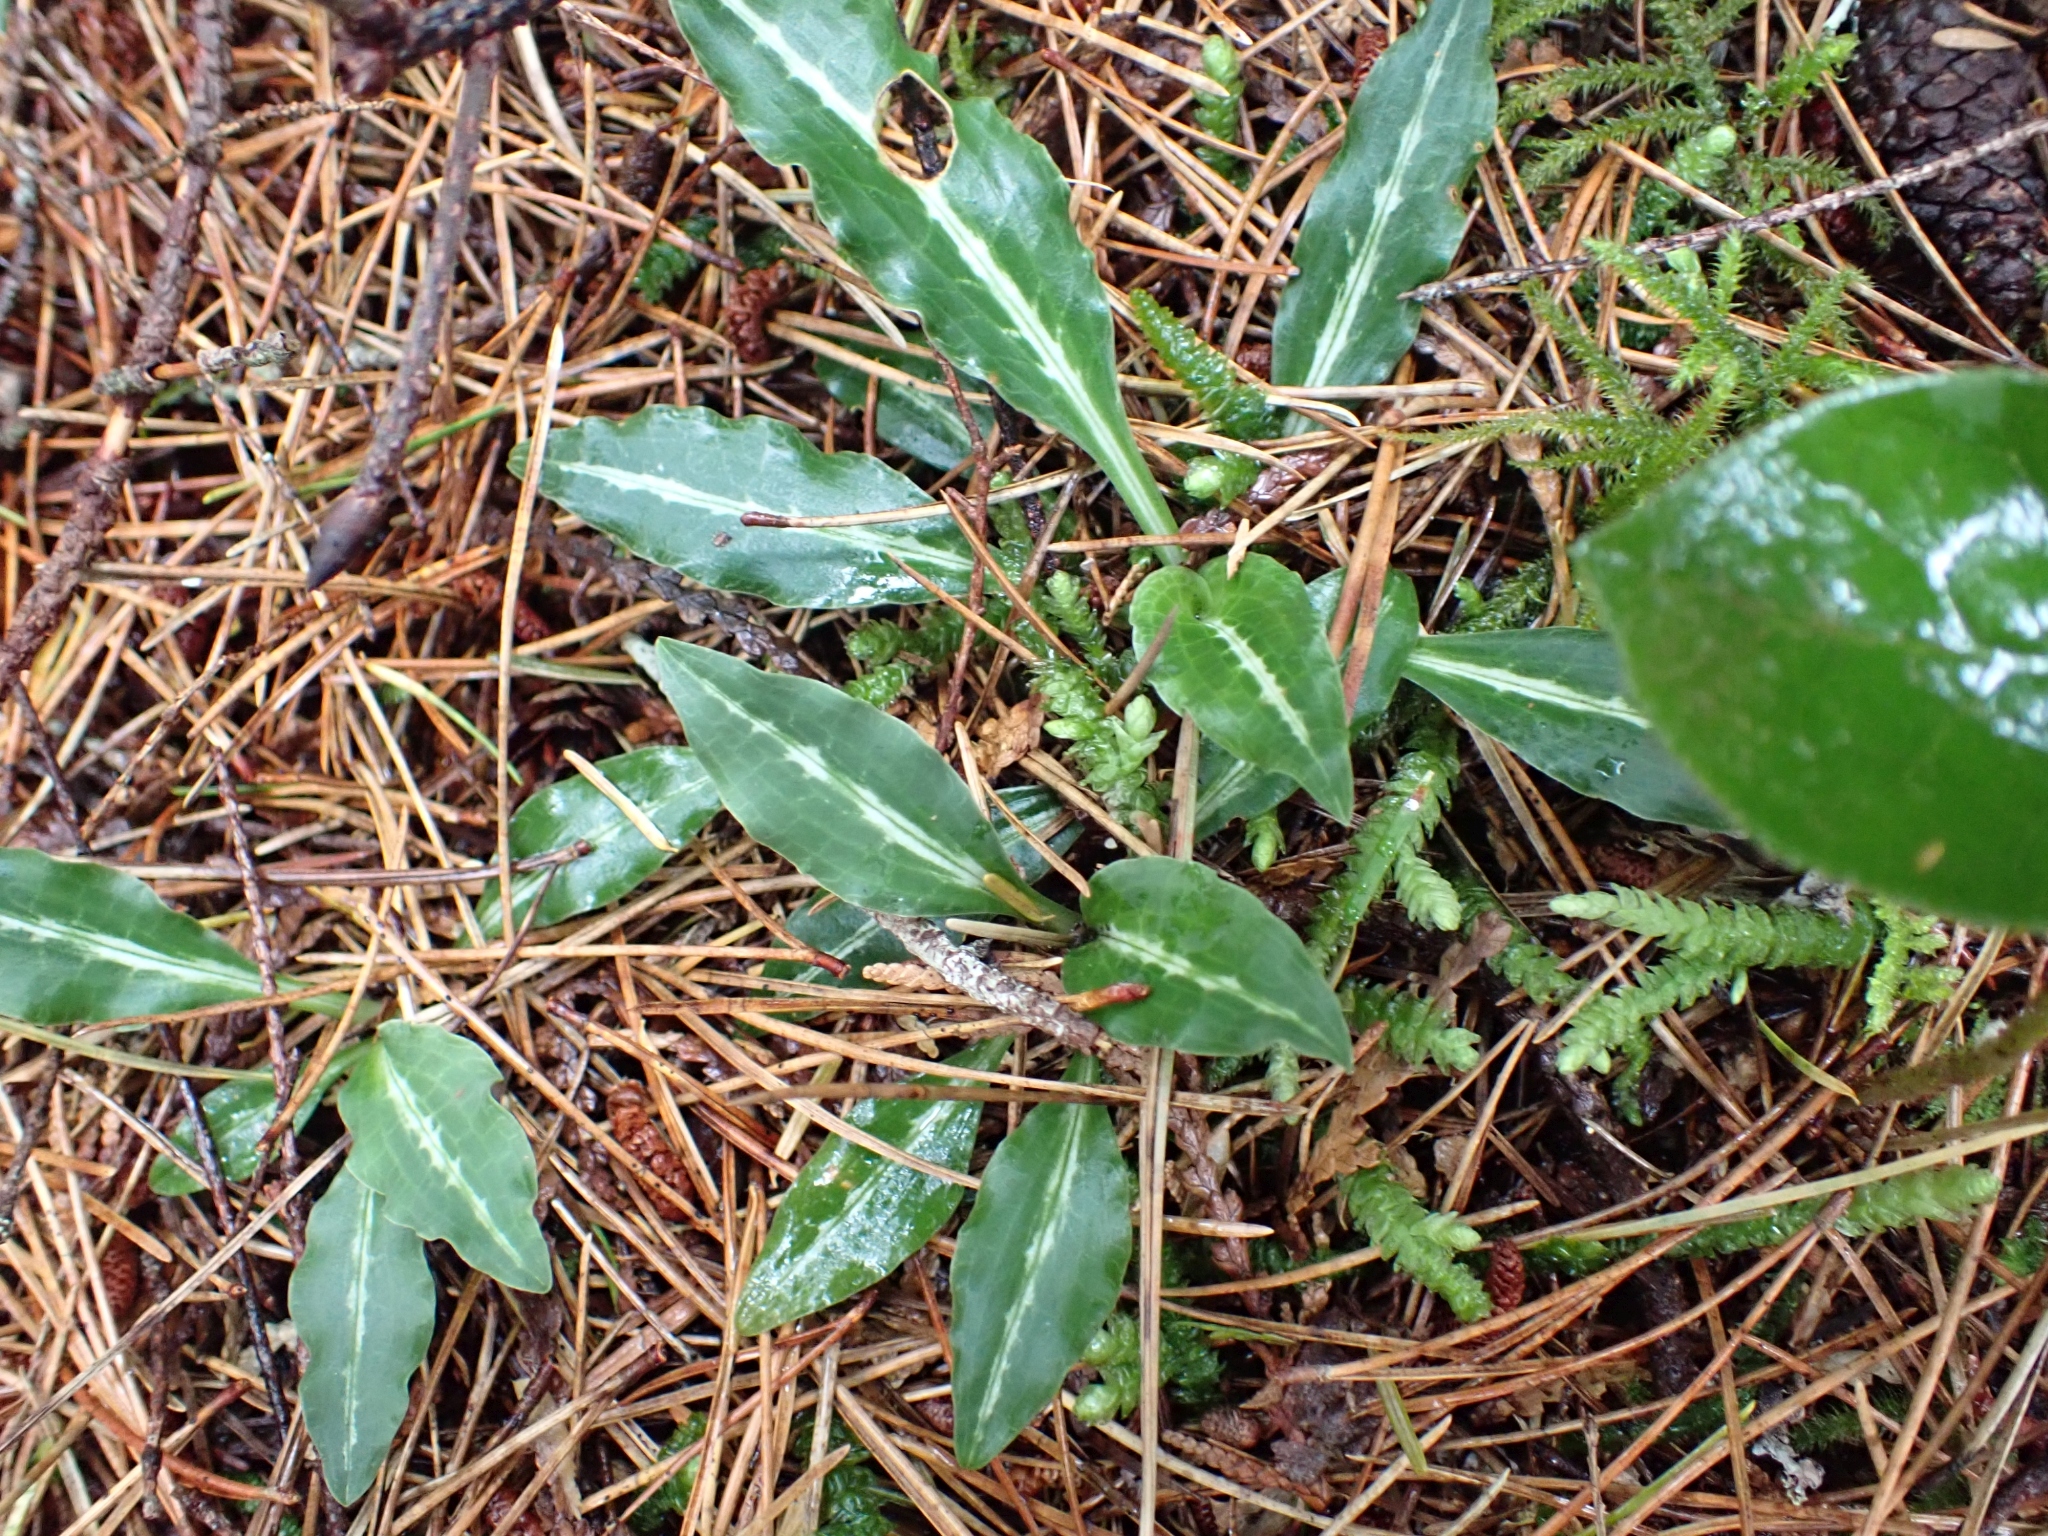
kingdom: Plantae
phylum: Tracheophyta
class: Liliopsida
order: Asparagales
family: Orchidaceae
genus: Goodyera
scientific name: Goodyera oblongifolia
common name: Giant rattlesnake-plantain
